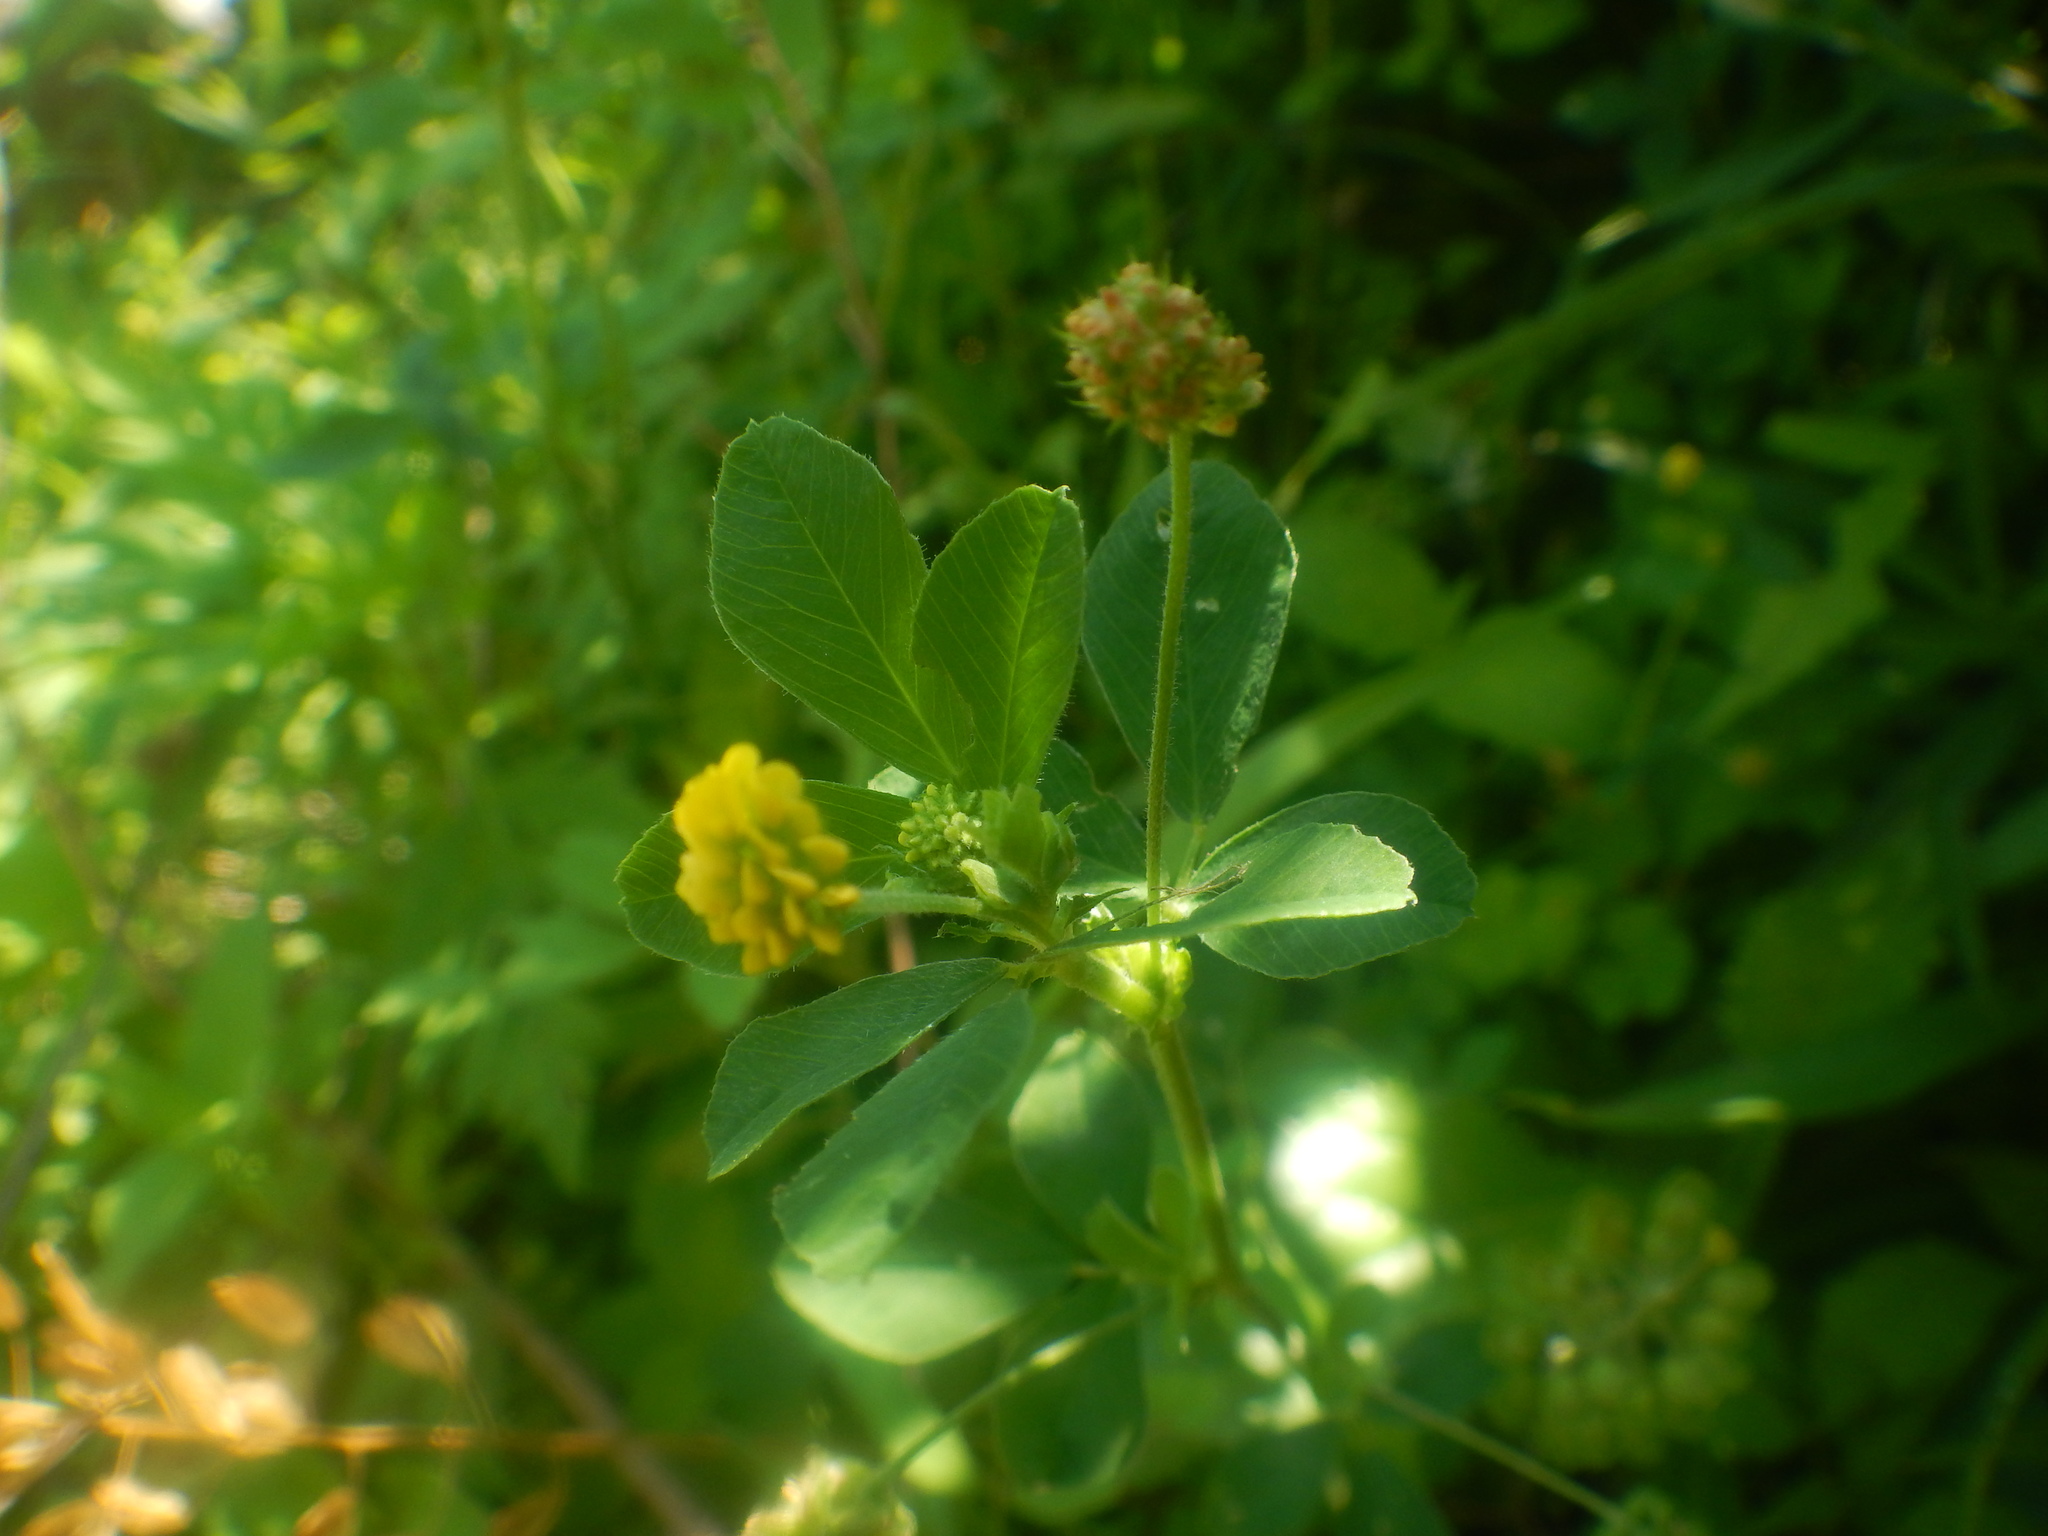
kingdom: Plantae
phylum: Tracheophyta
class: Magnoliopsida
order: Fabales
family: Fabaceae
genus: Medicago
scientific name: Medicago lupulina
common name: Black medick
